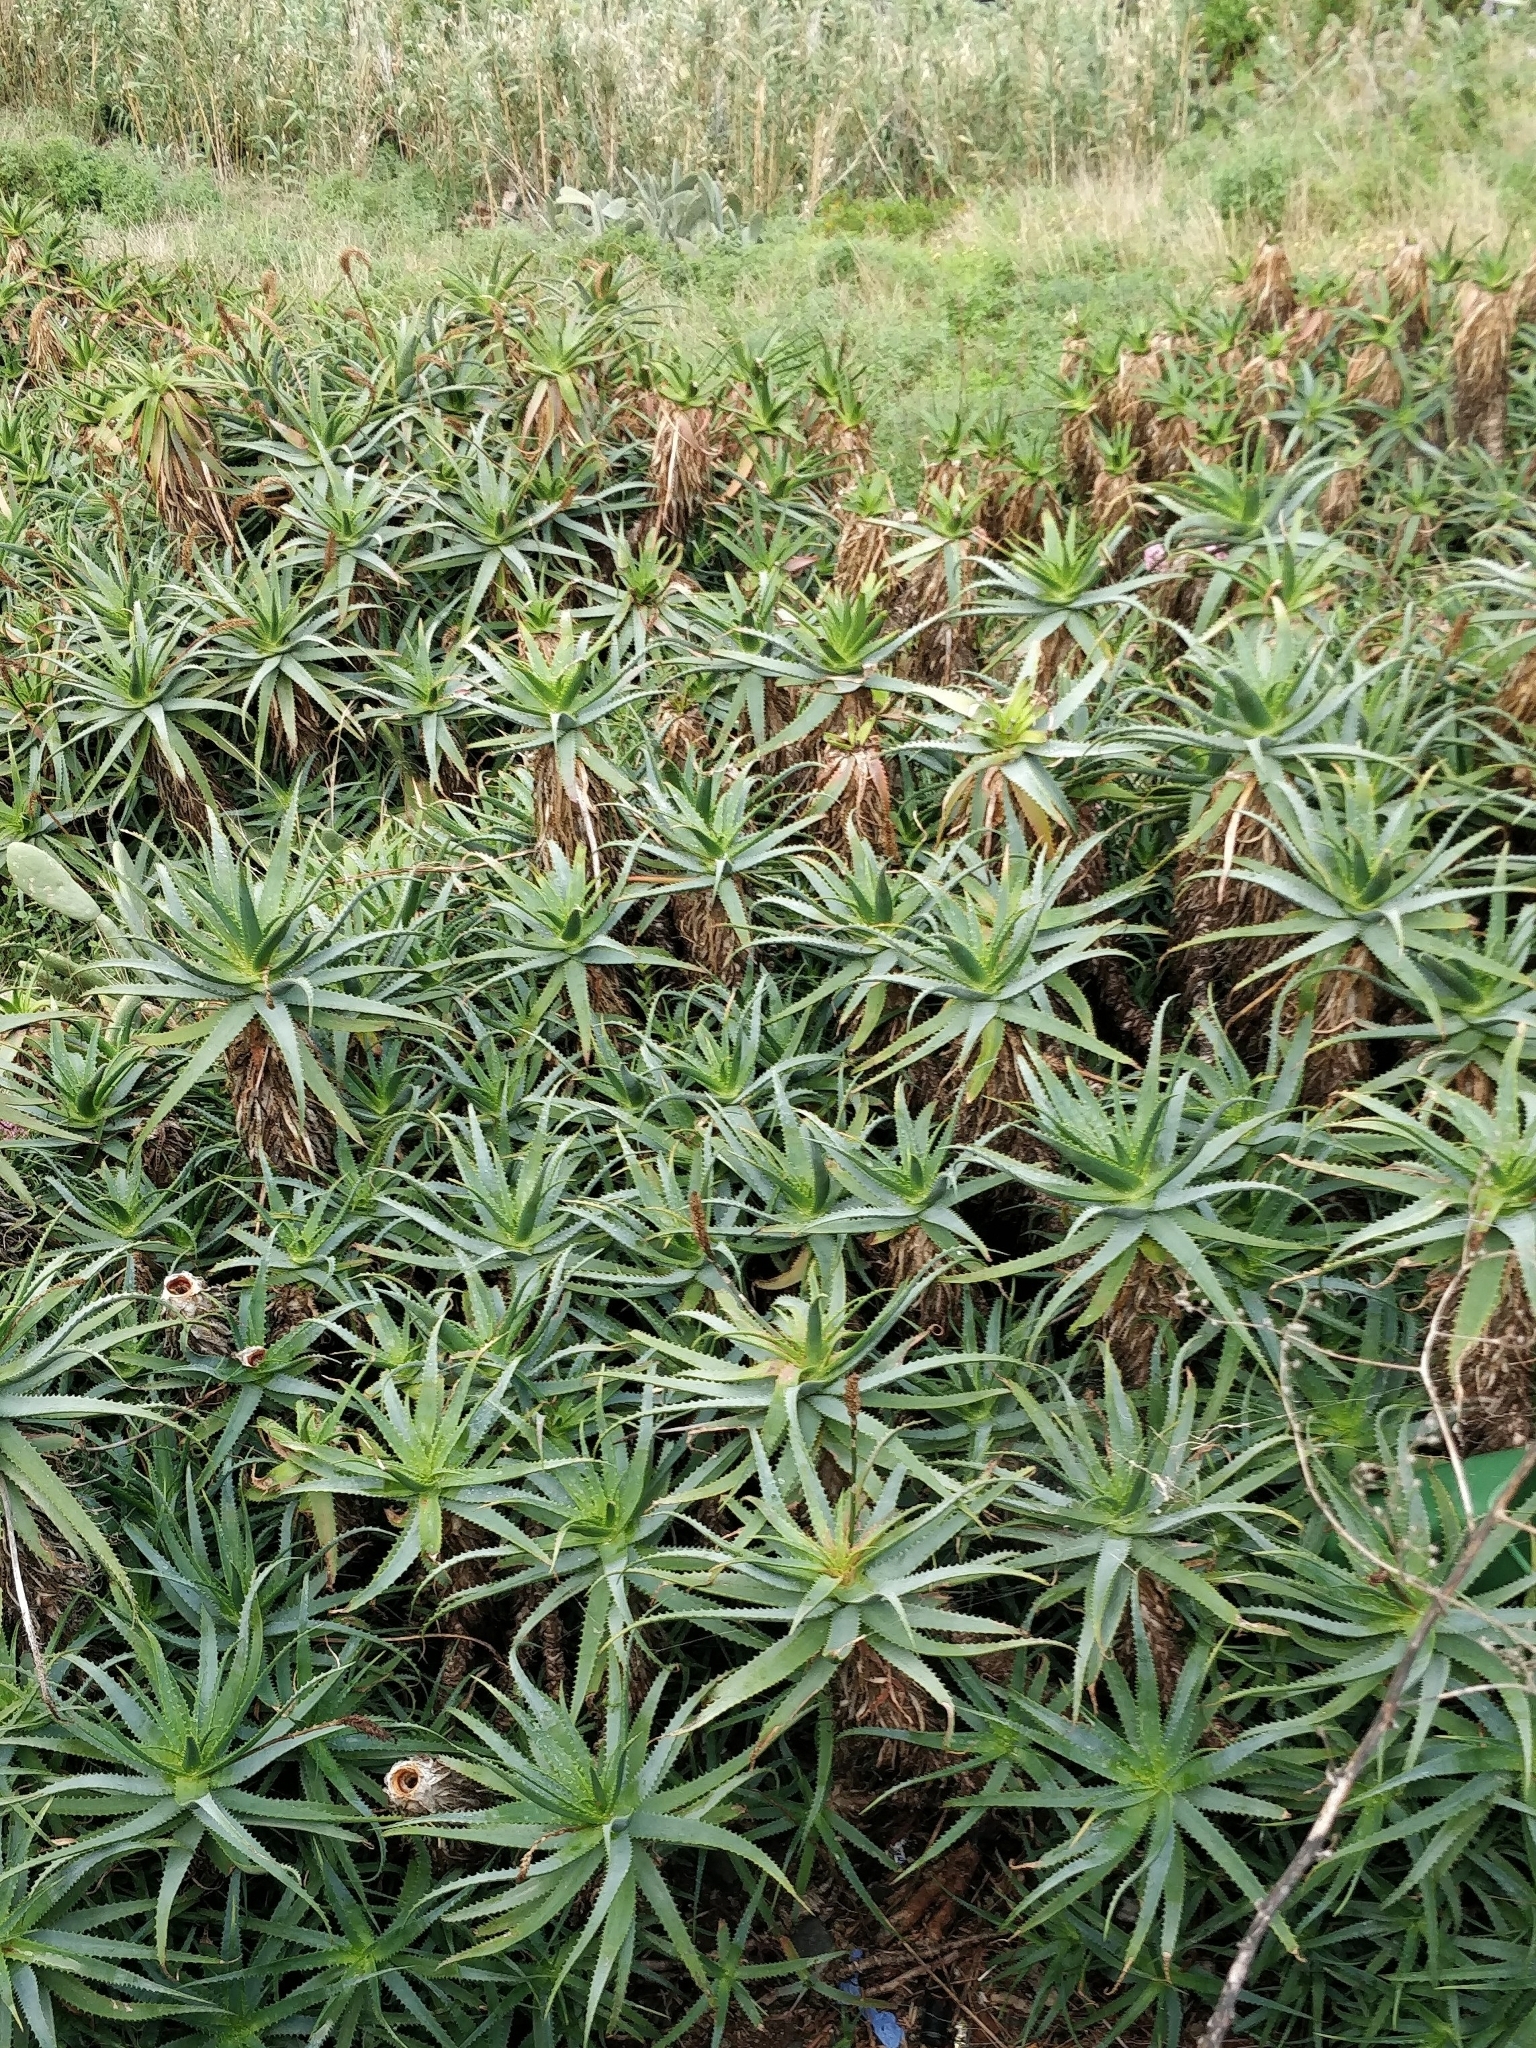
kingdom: Plantae
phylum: Tracheophyta
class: Liliopsida
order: Asparagales
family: Asphodelaceae
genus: Aloe
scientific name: Aloe arborescens
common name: Candelabra aloe
